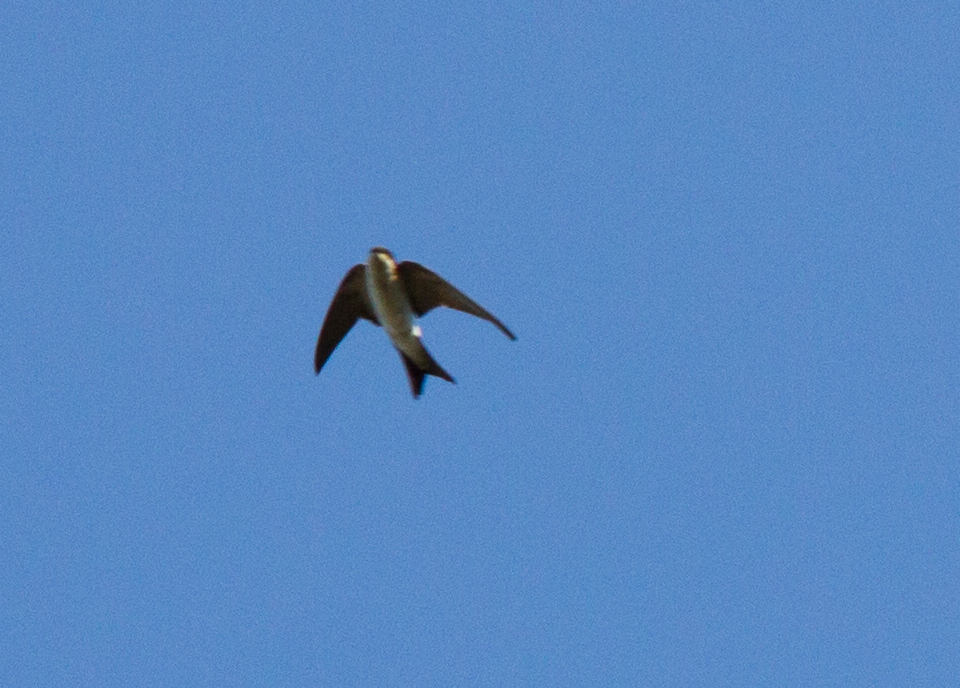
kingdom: Animalia
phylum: Chordata
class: Aves
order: Passeriformes
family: Hirundinidae
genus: Delichon
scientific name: Delichon urbicum
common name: Common house martin
